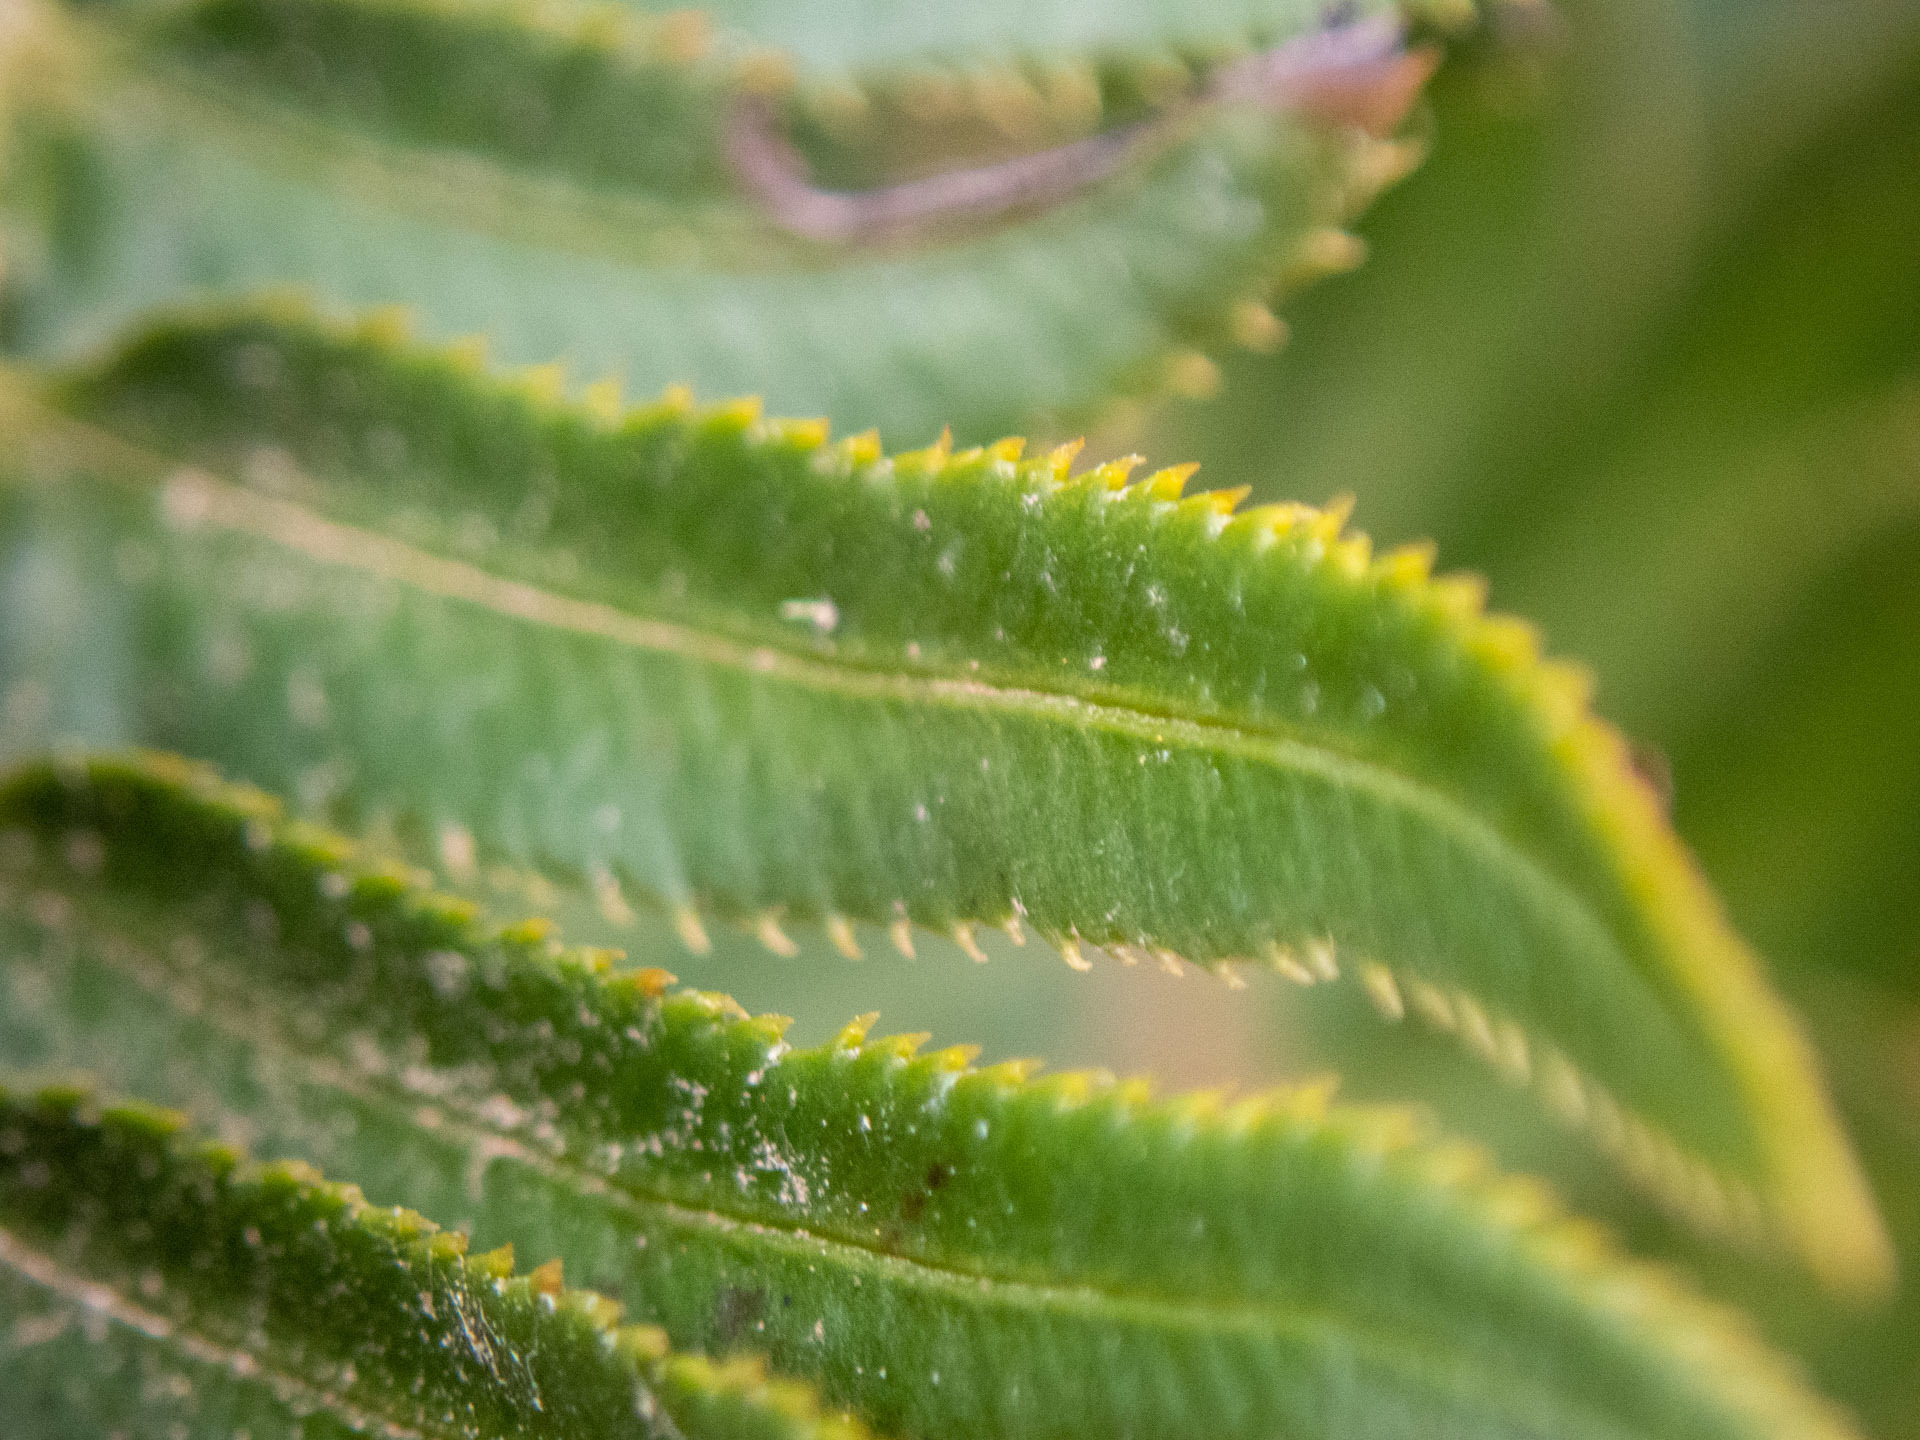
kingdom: Plantae
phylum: Tracheophyta
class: Polypodiopsida
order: Polypodiales
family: Dryopteridaceae
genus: Polystichum
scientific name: Polystichum munitum
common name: Western sword-fern
